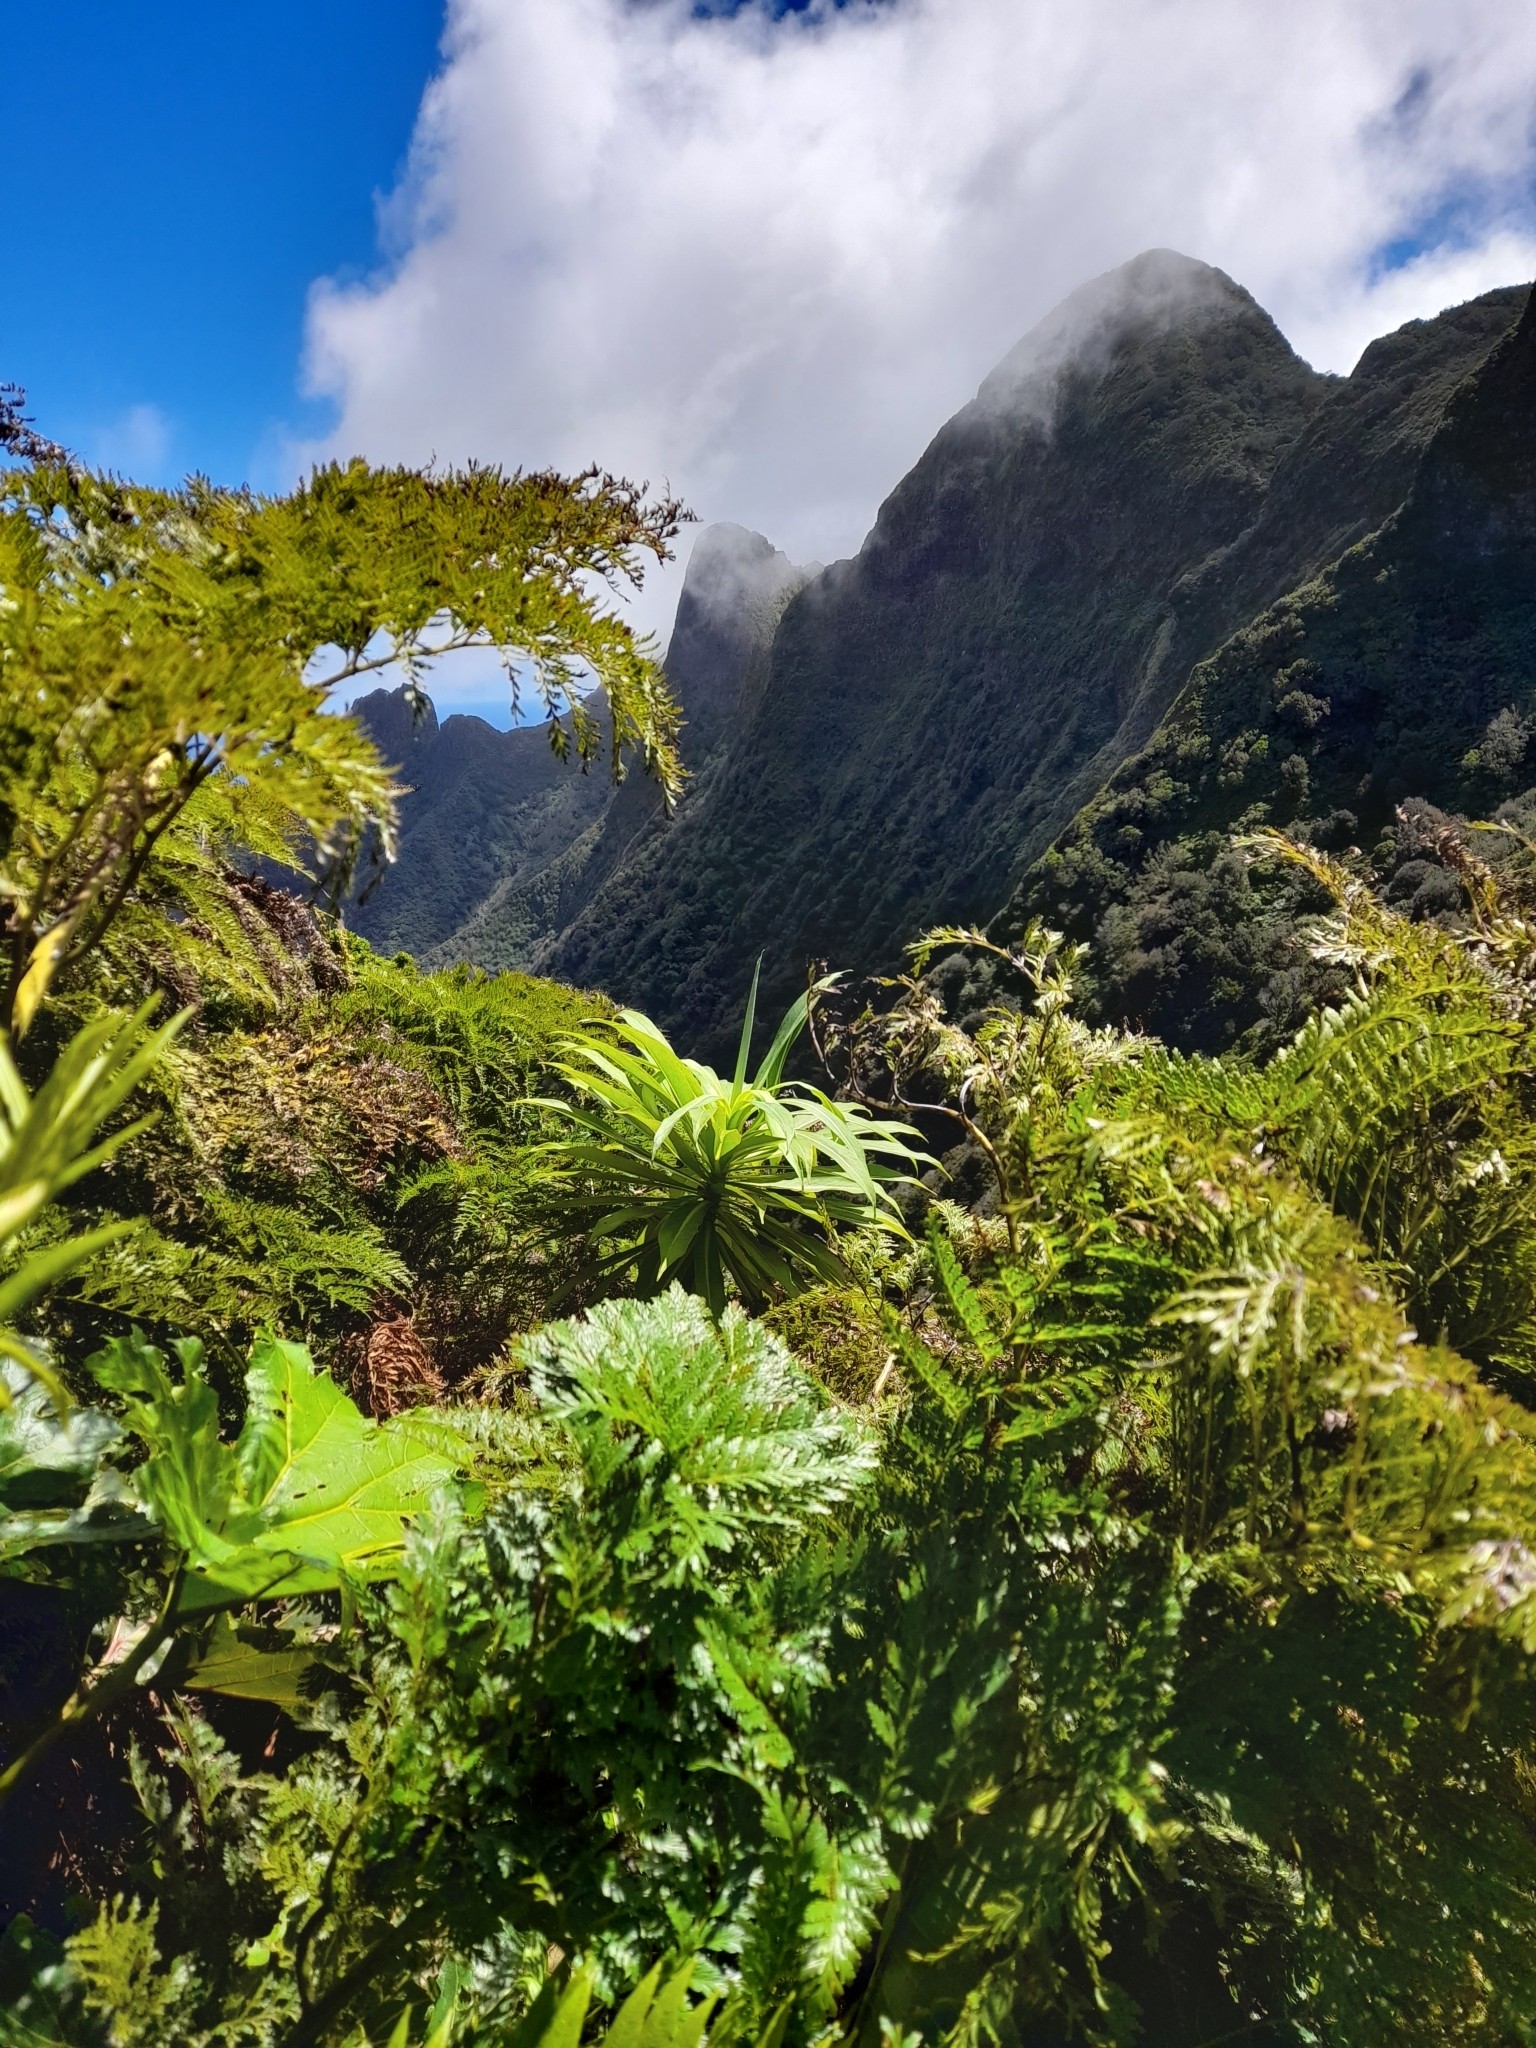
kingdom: Plantae
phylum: Tracheophyta
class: Magnoliopsida
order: Asterales
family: Asteraceae
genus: Robinsonia
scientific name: Robinsonia thurifera
